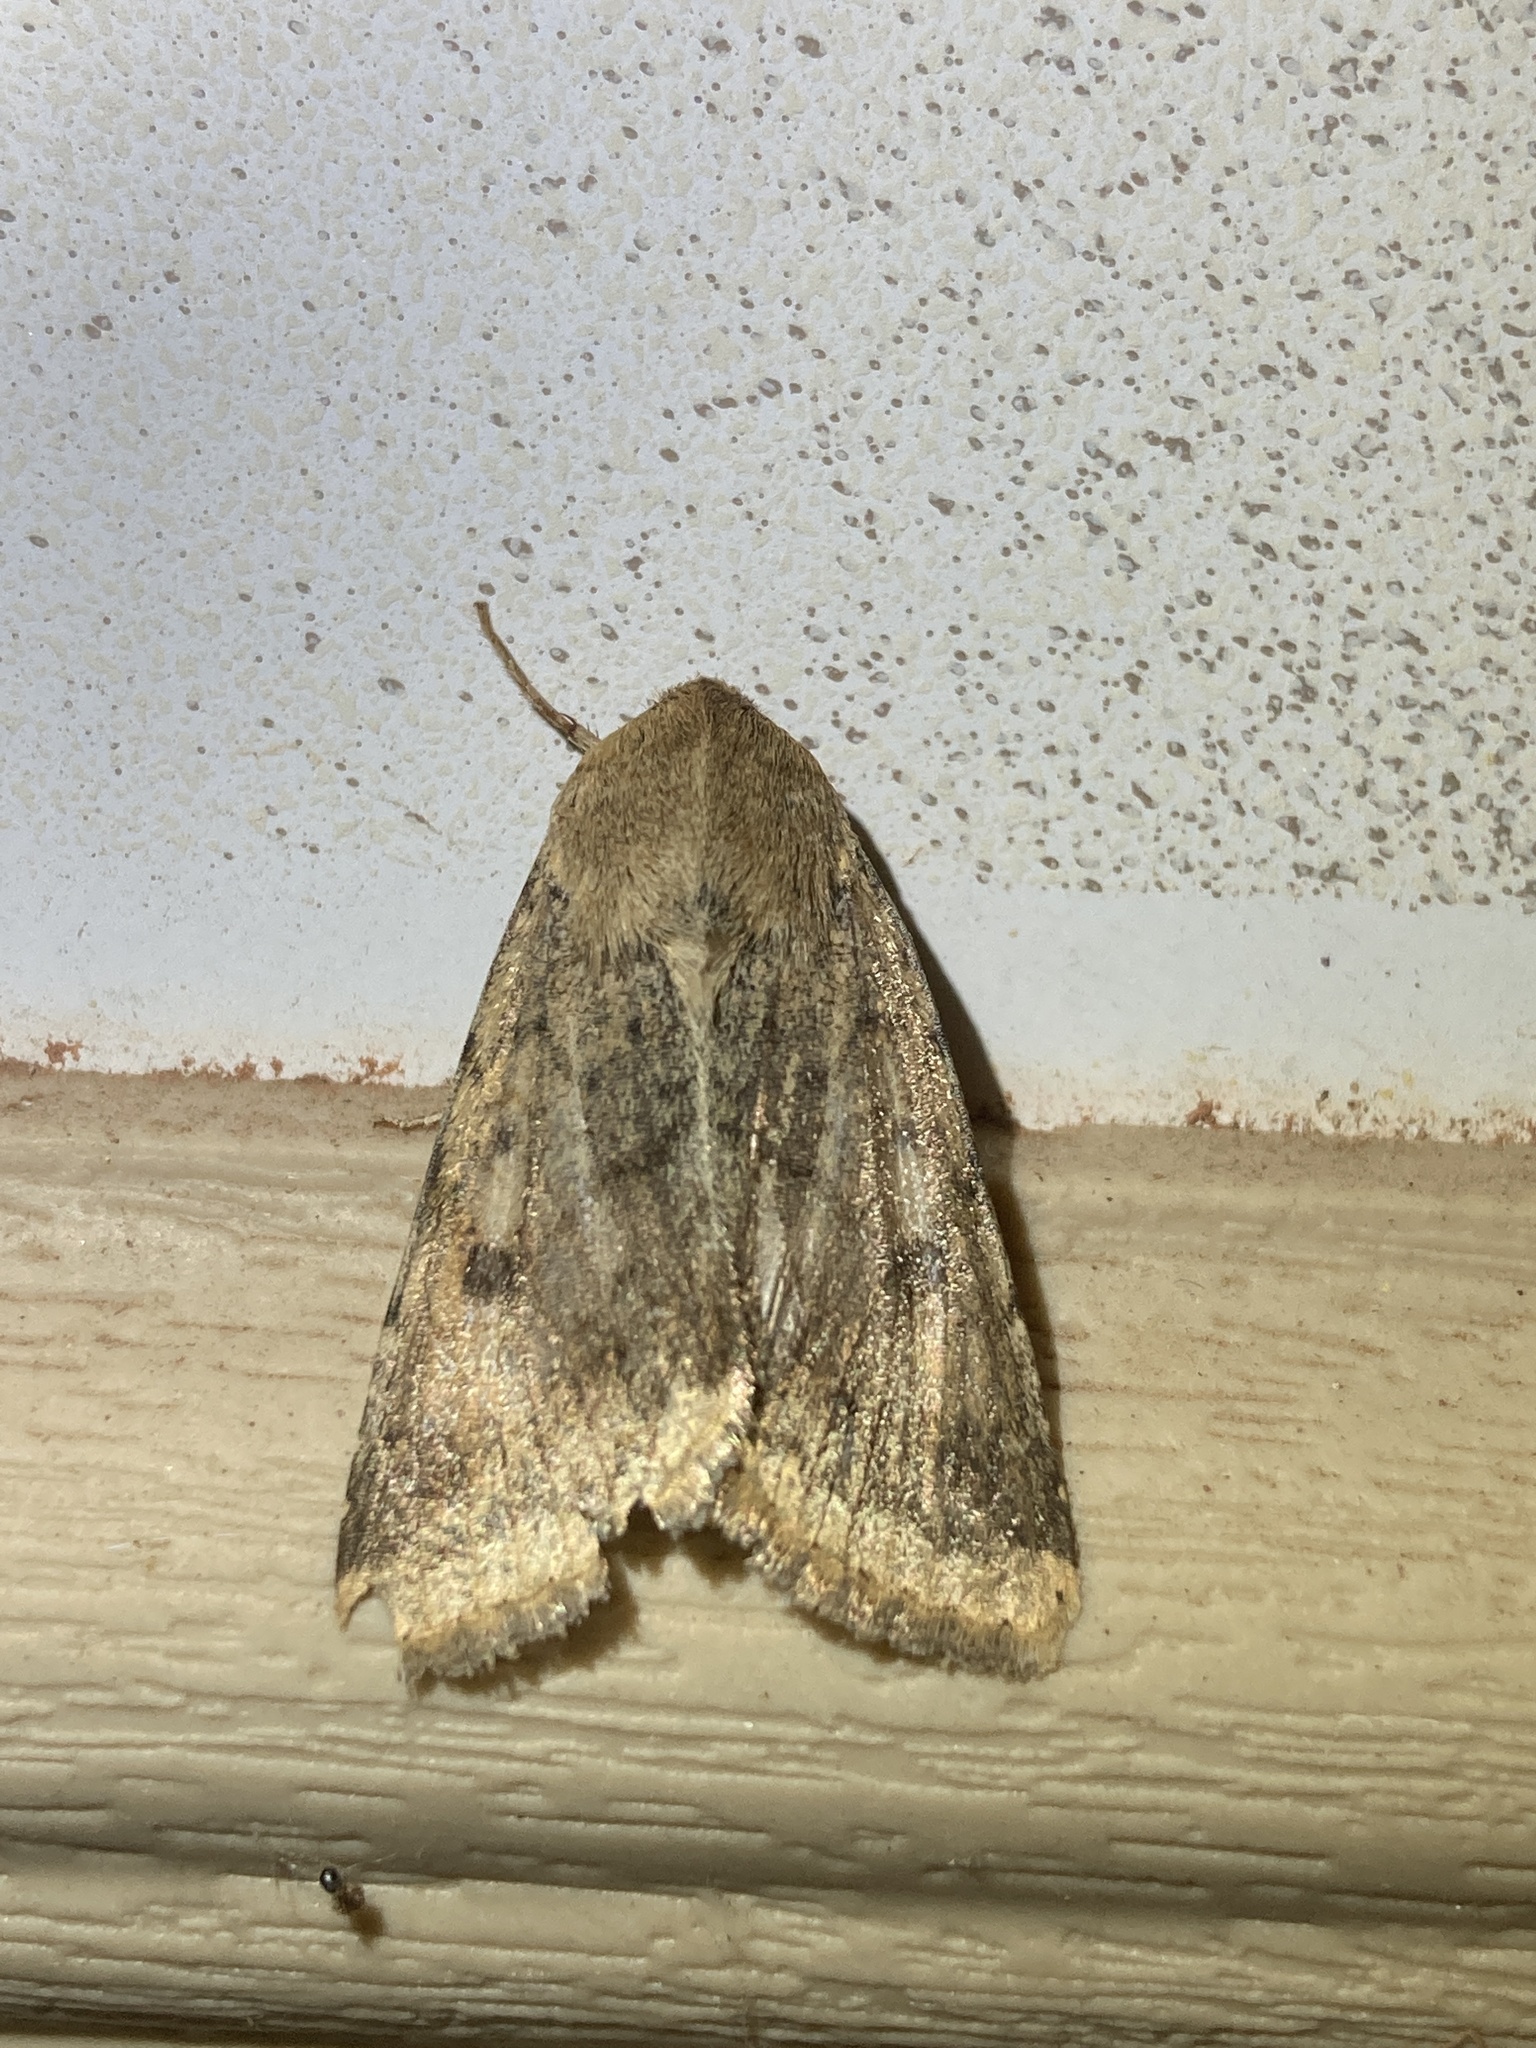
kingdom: Animalia
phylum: Arthropoda
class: Insecta
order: Lepidoptera
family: Noctuidae
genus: Helicoverpa
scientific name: Helicoverpa zea
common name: Bollworm
